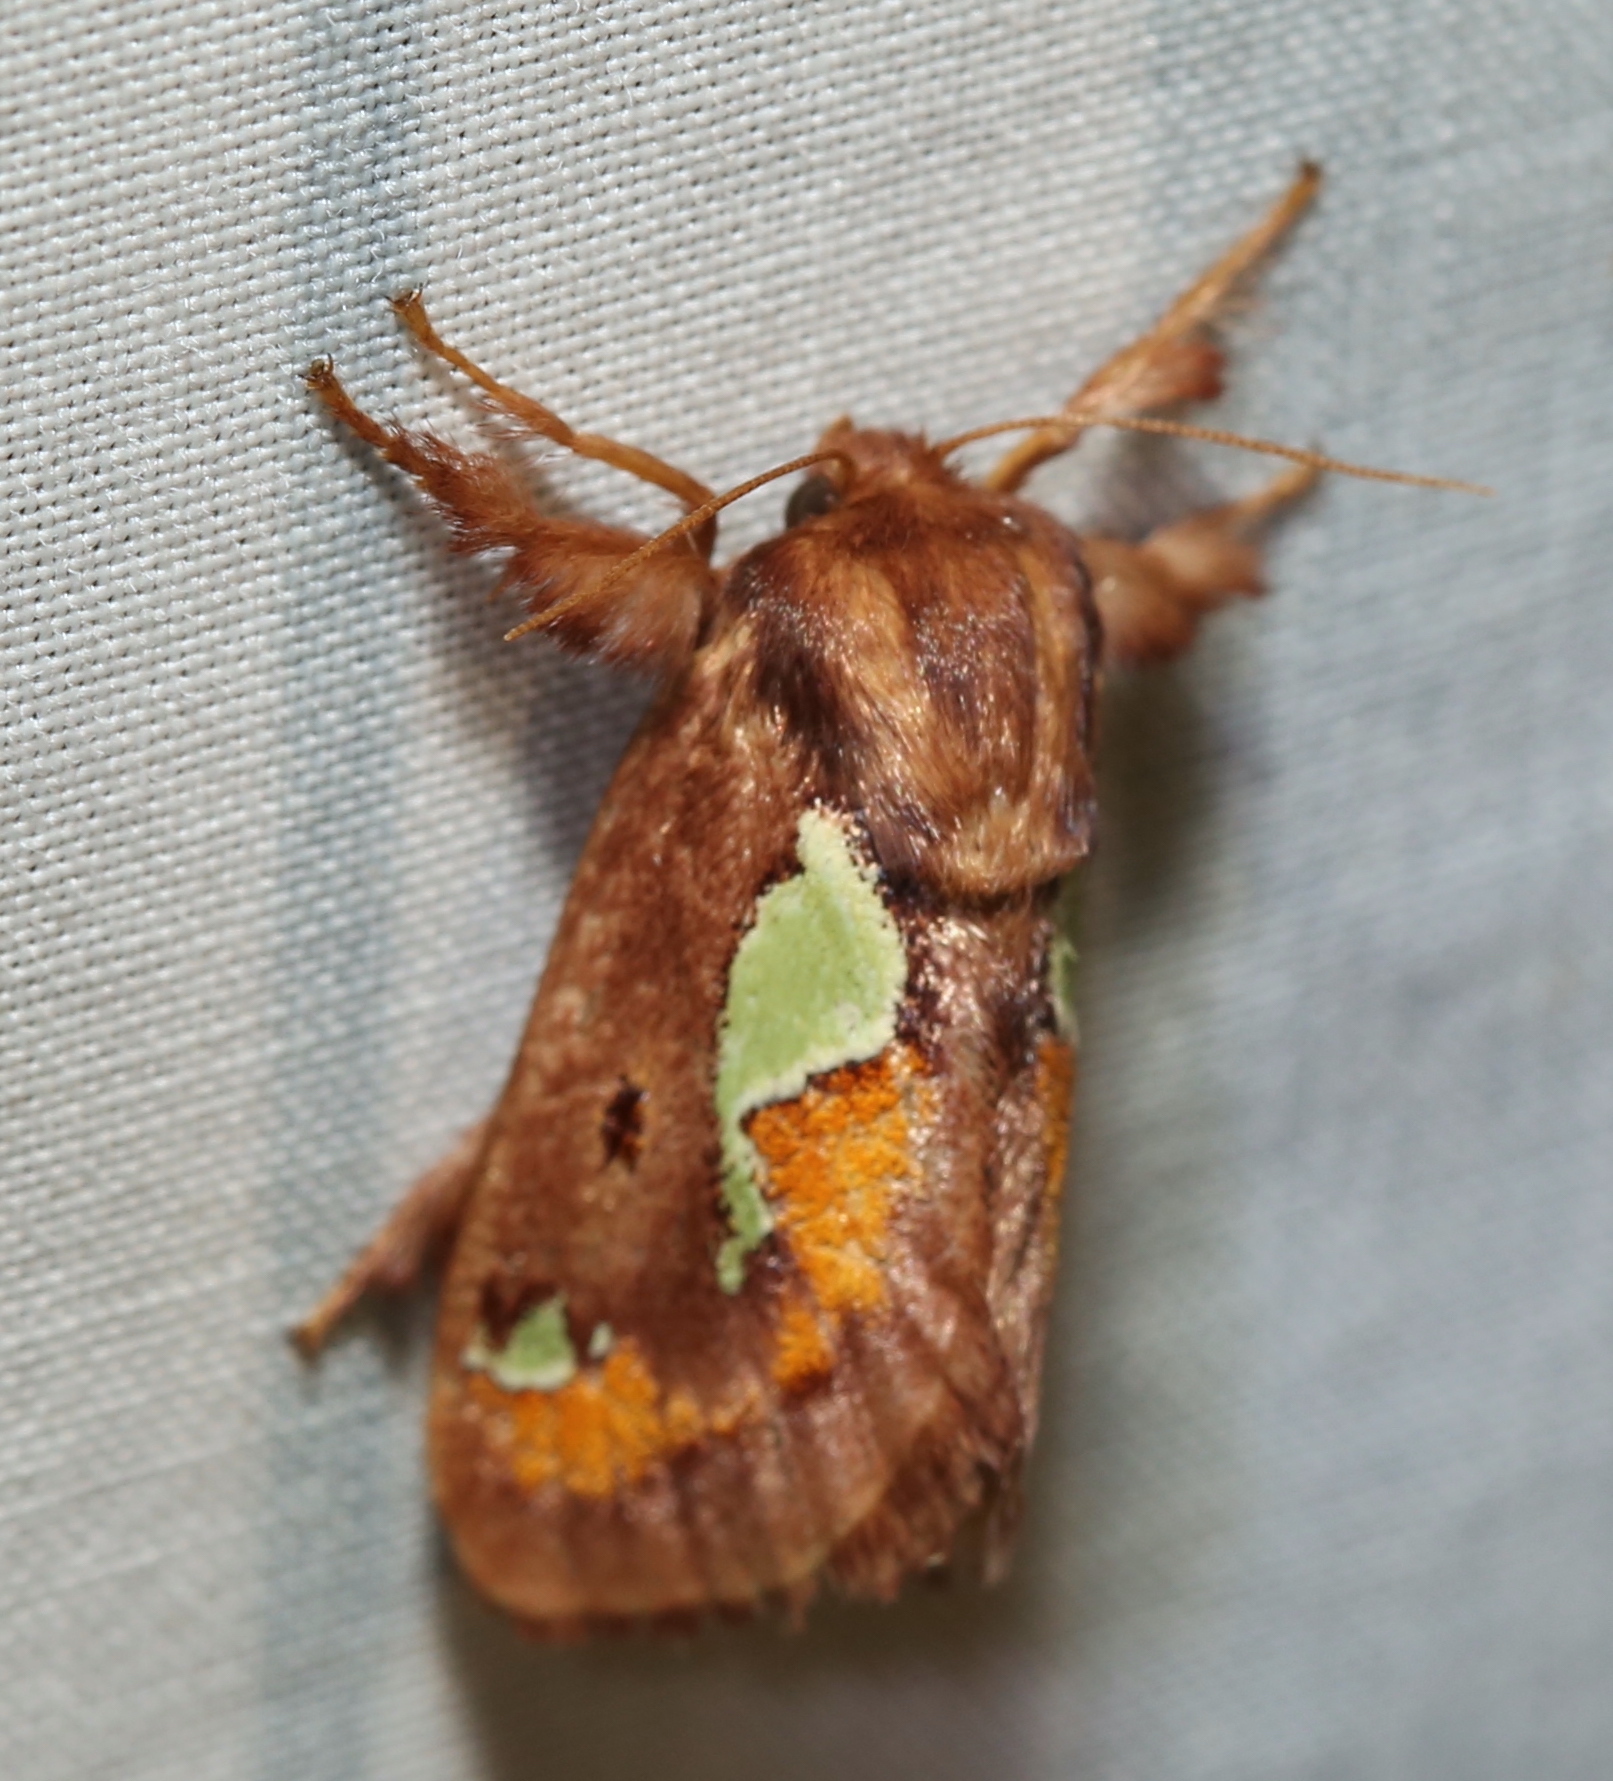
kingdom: Animalia
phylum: Arthropoda
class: Insecta
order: Lepidoptera
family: Limacodidae
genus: Euclea
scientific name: Euclea delphinii
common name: Spiny oak-slug moth
